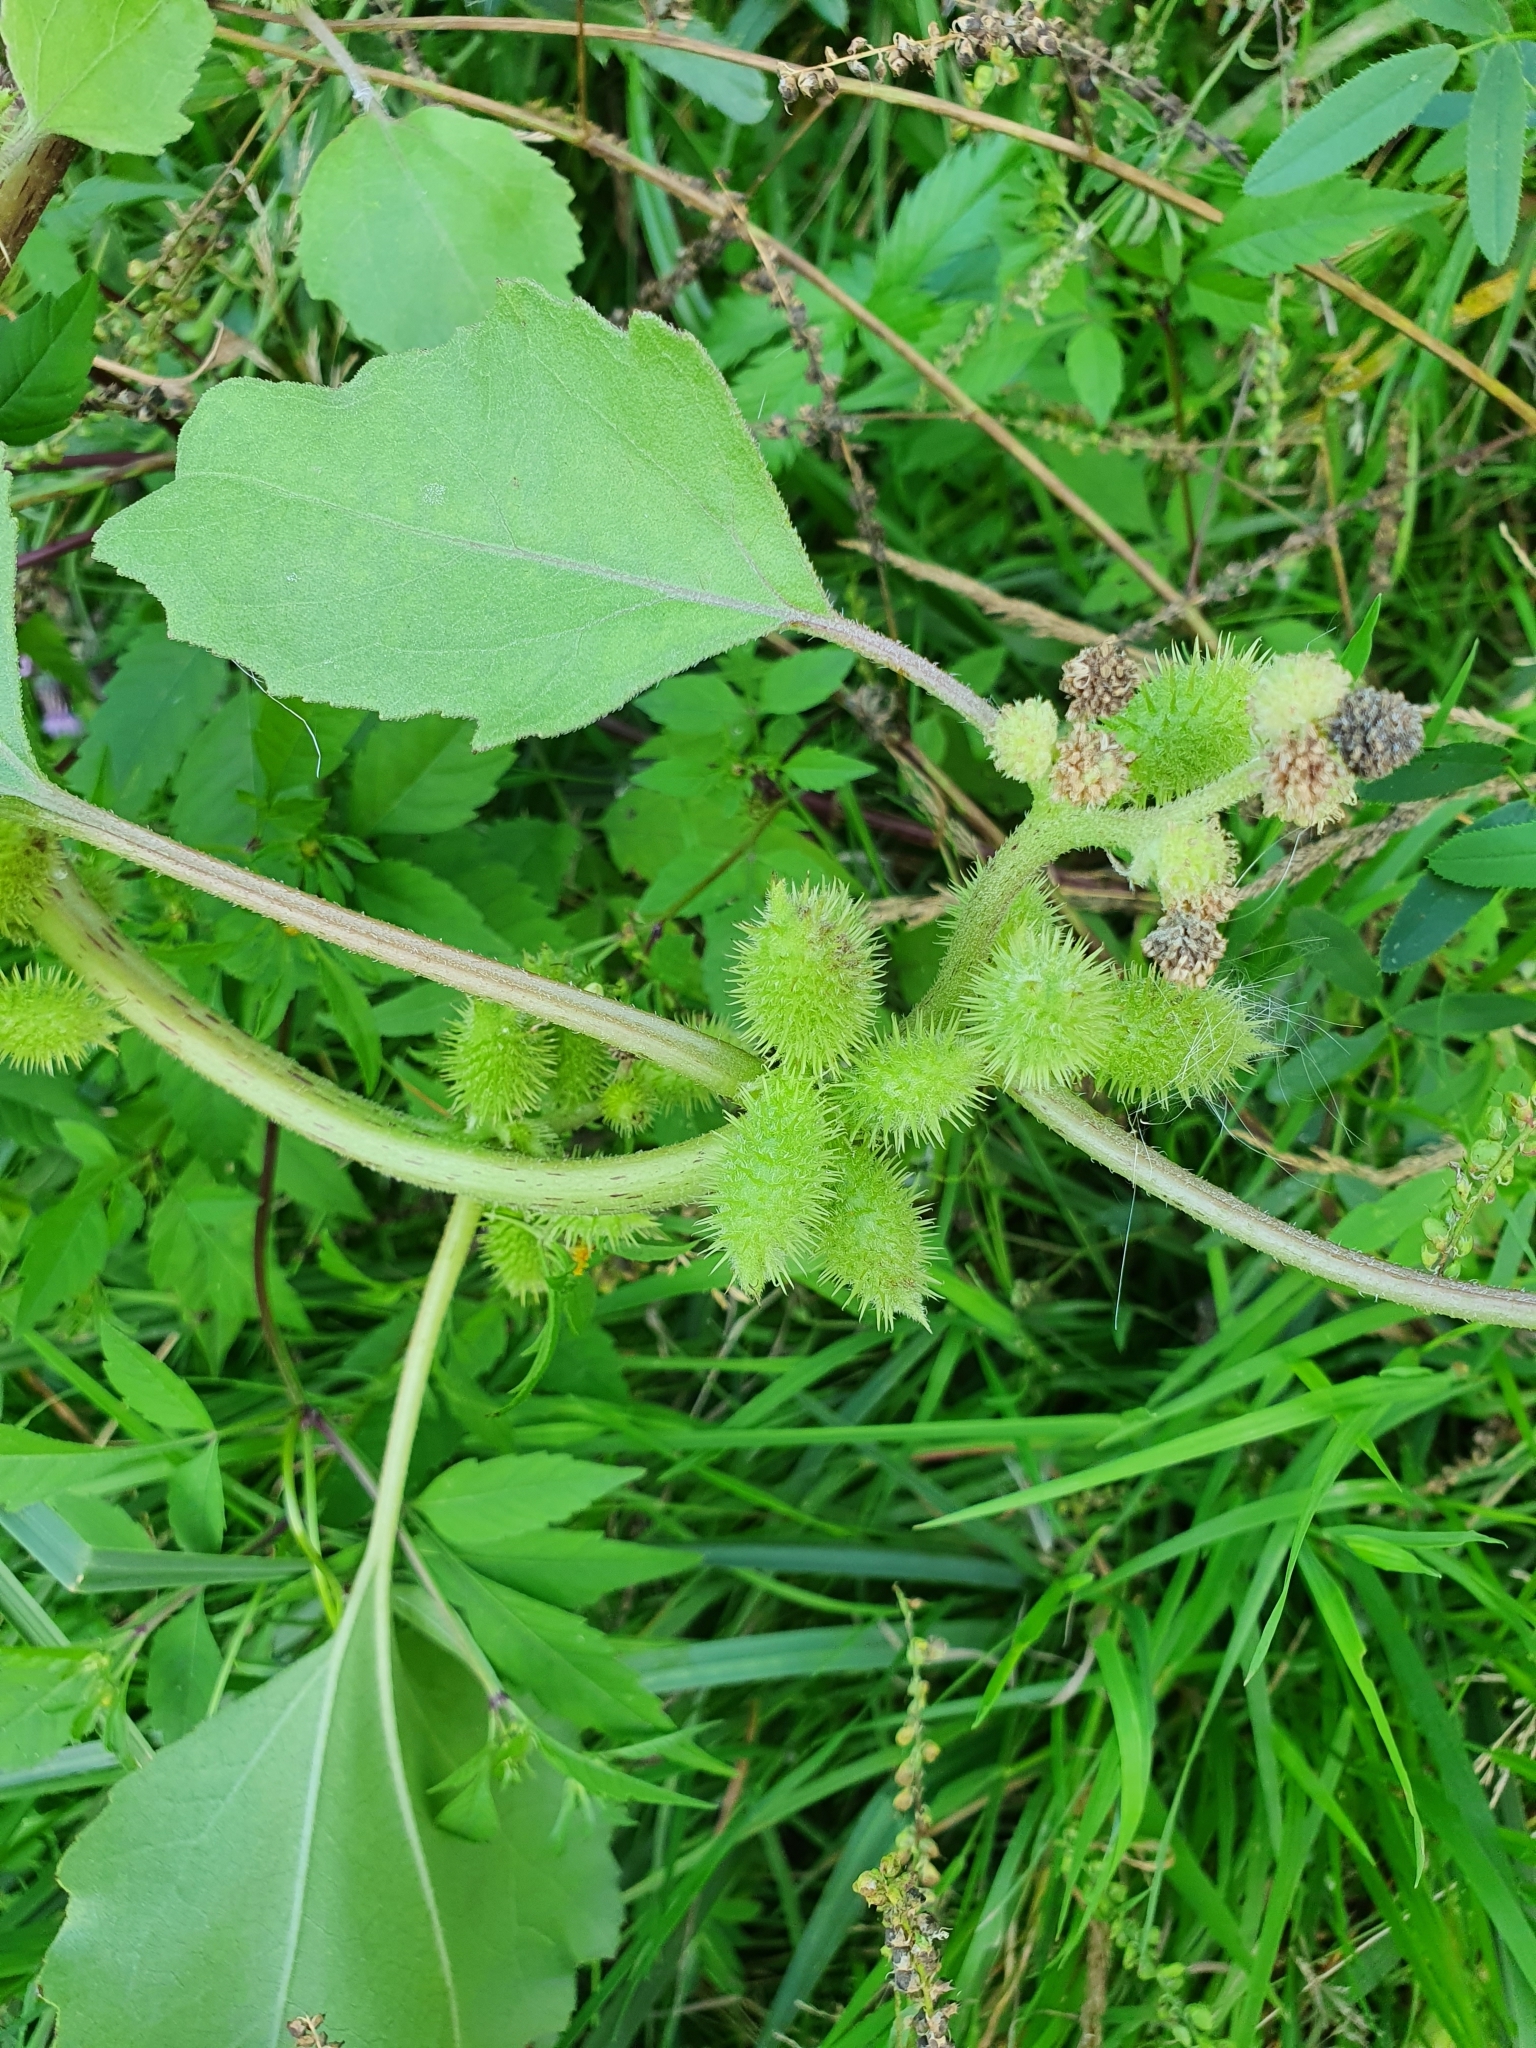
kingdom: Plantae
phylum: Tracheophyta
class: Magnoliopsida
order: Asterales
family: Asteraceae
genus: Xanthium
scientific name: Xanthium orientale
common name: Californian burr
